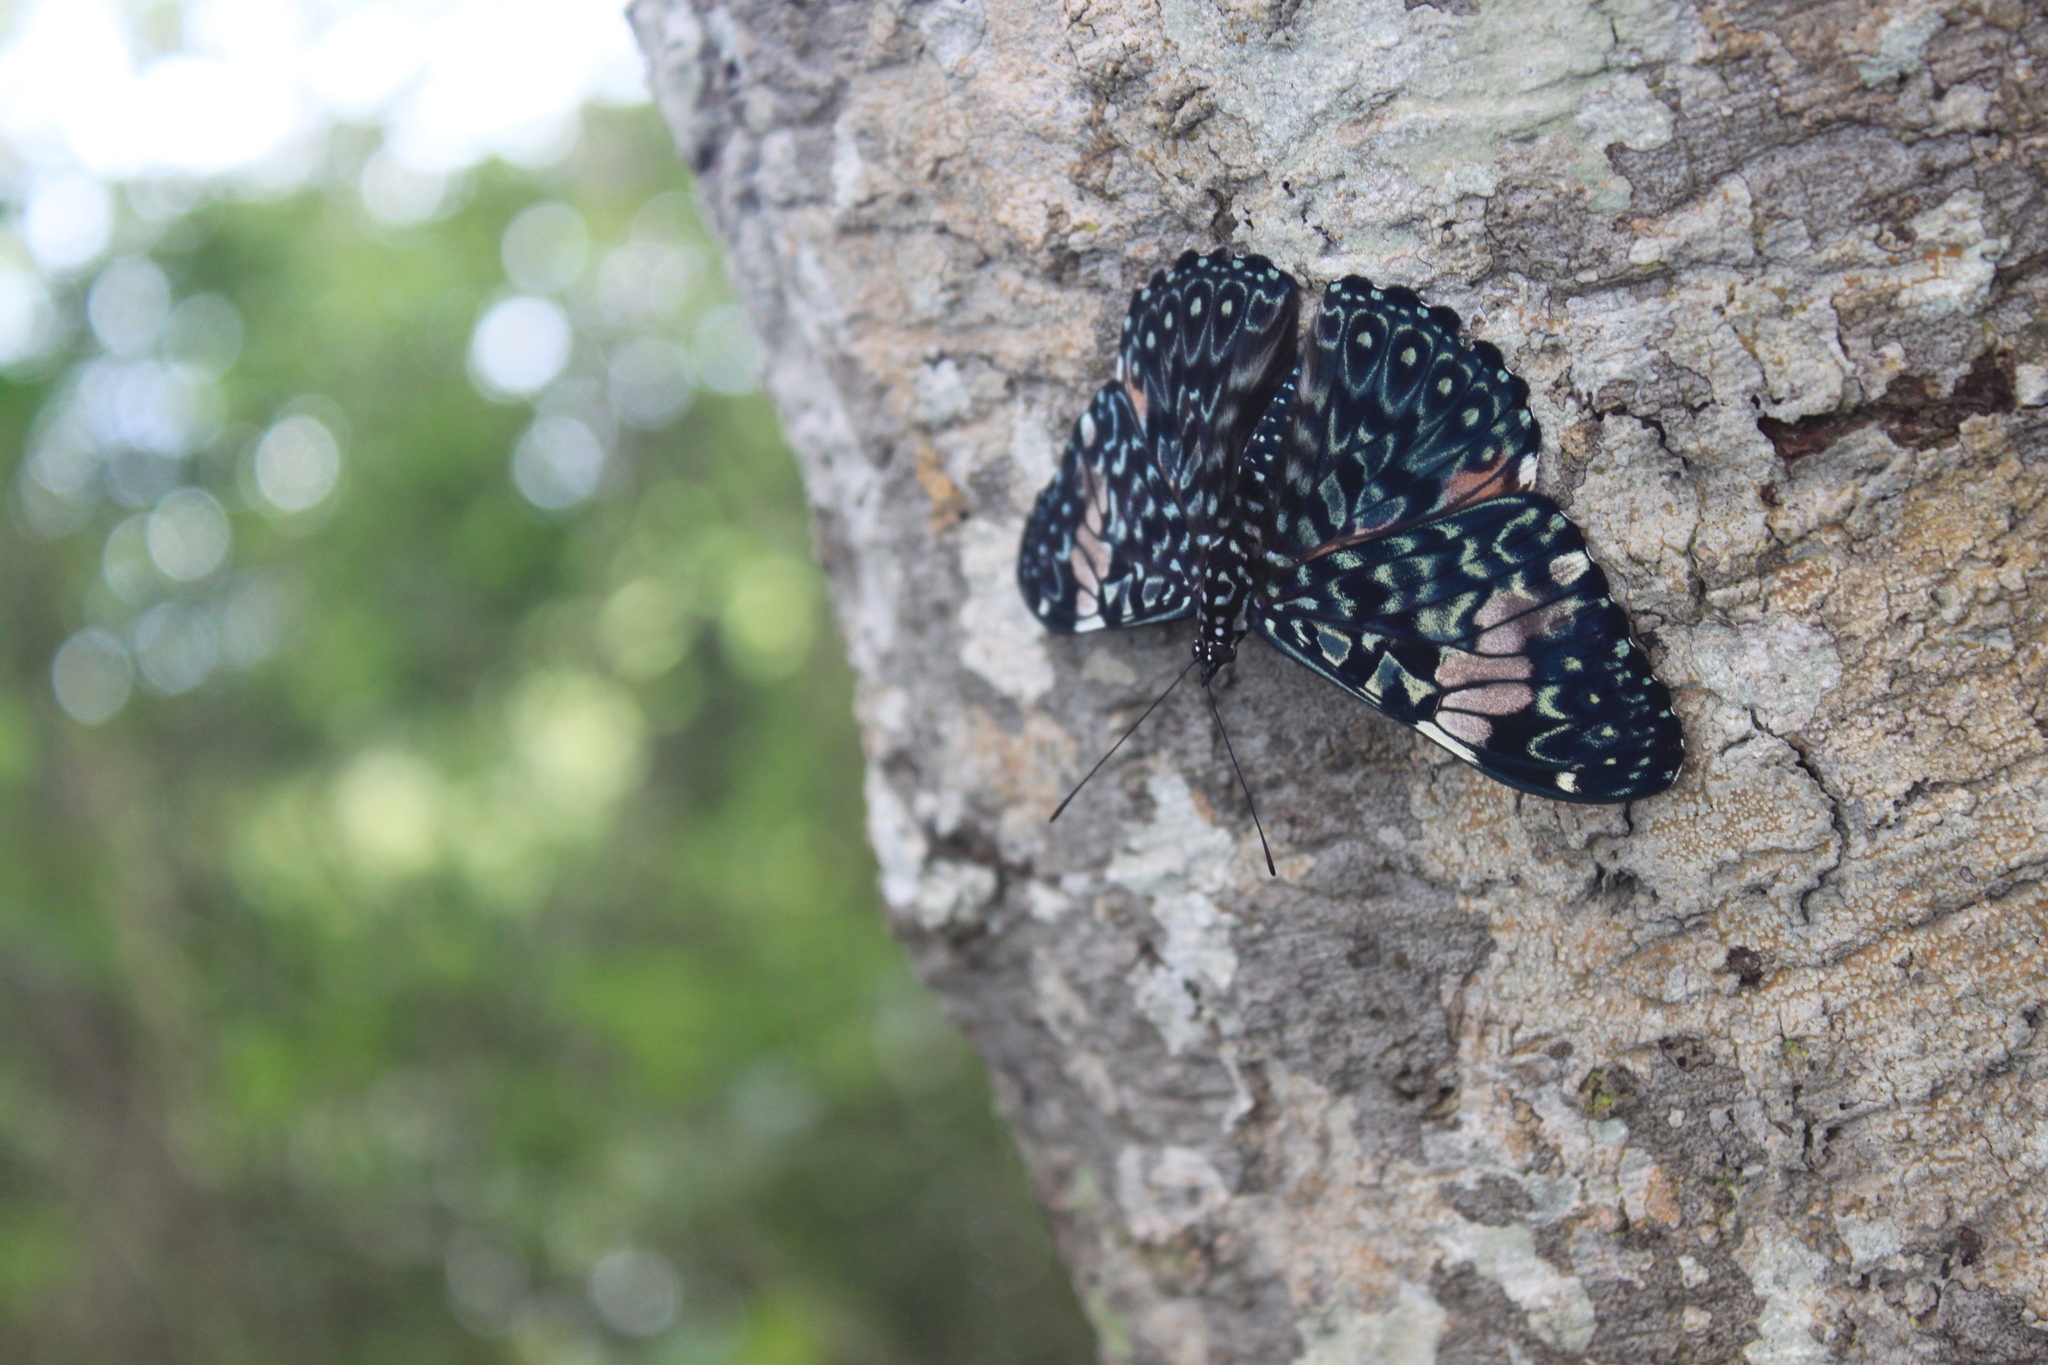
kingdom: Animalia
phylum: Arthropoda
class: Insecta
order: Lepidoptera
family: Nymphalidae
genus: Hamadryas
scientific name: Hamadryas amphinome
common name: Red cracker
